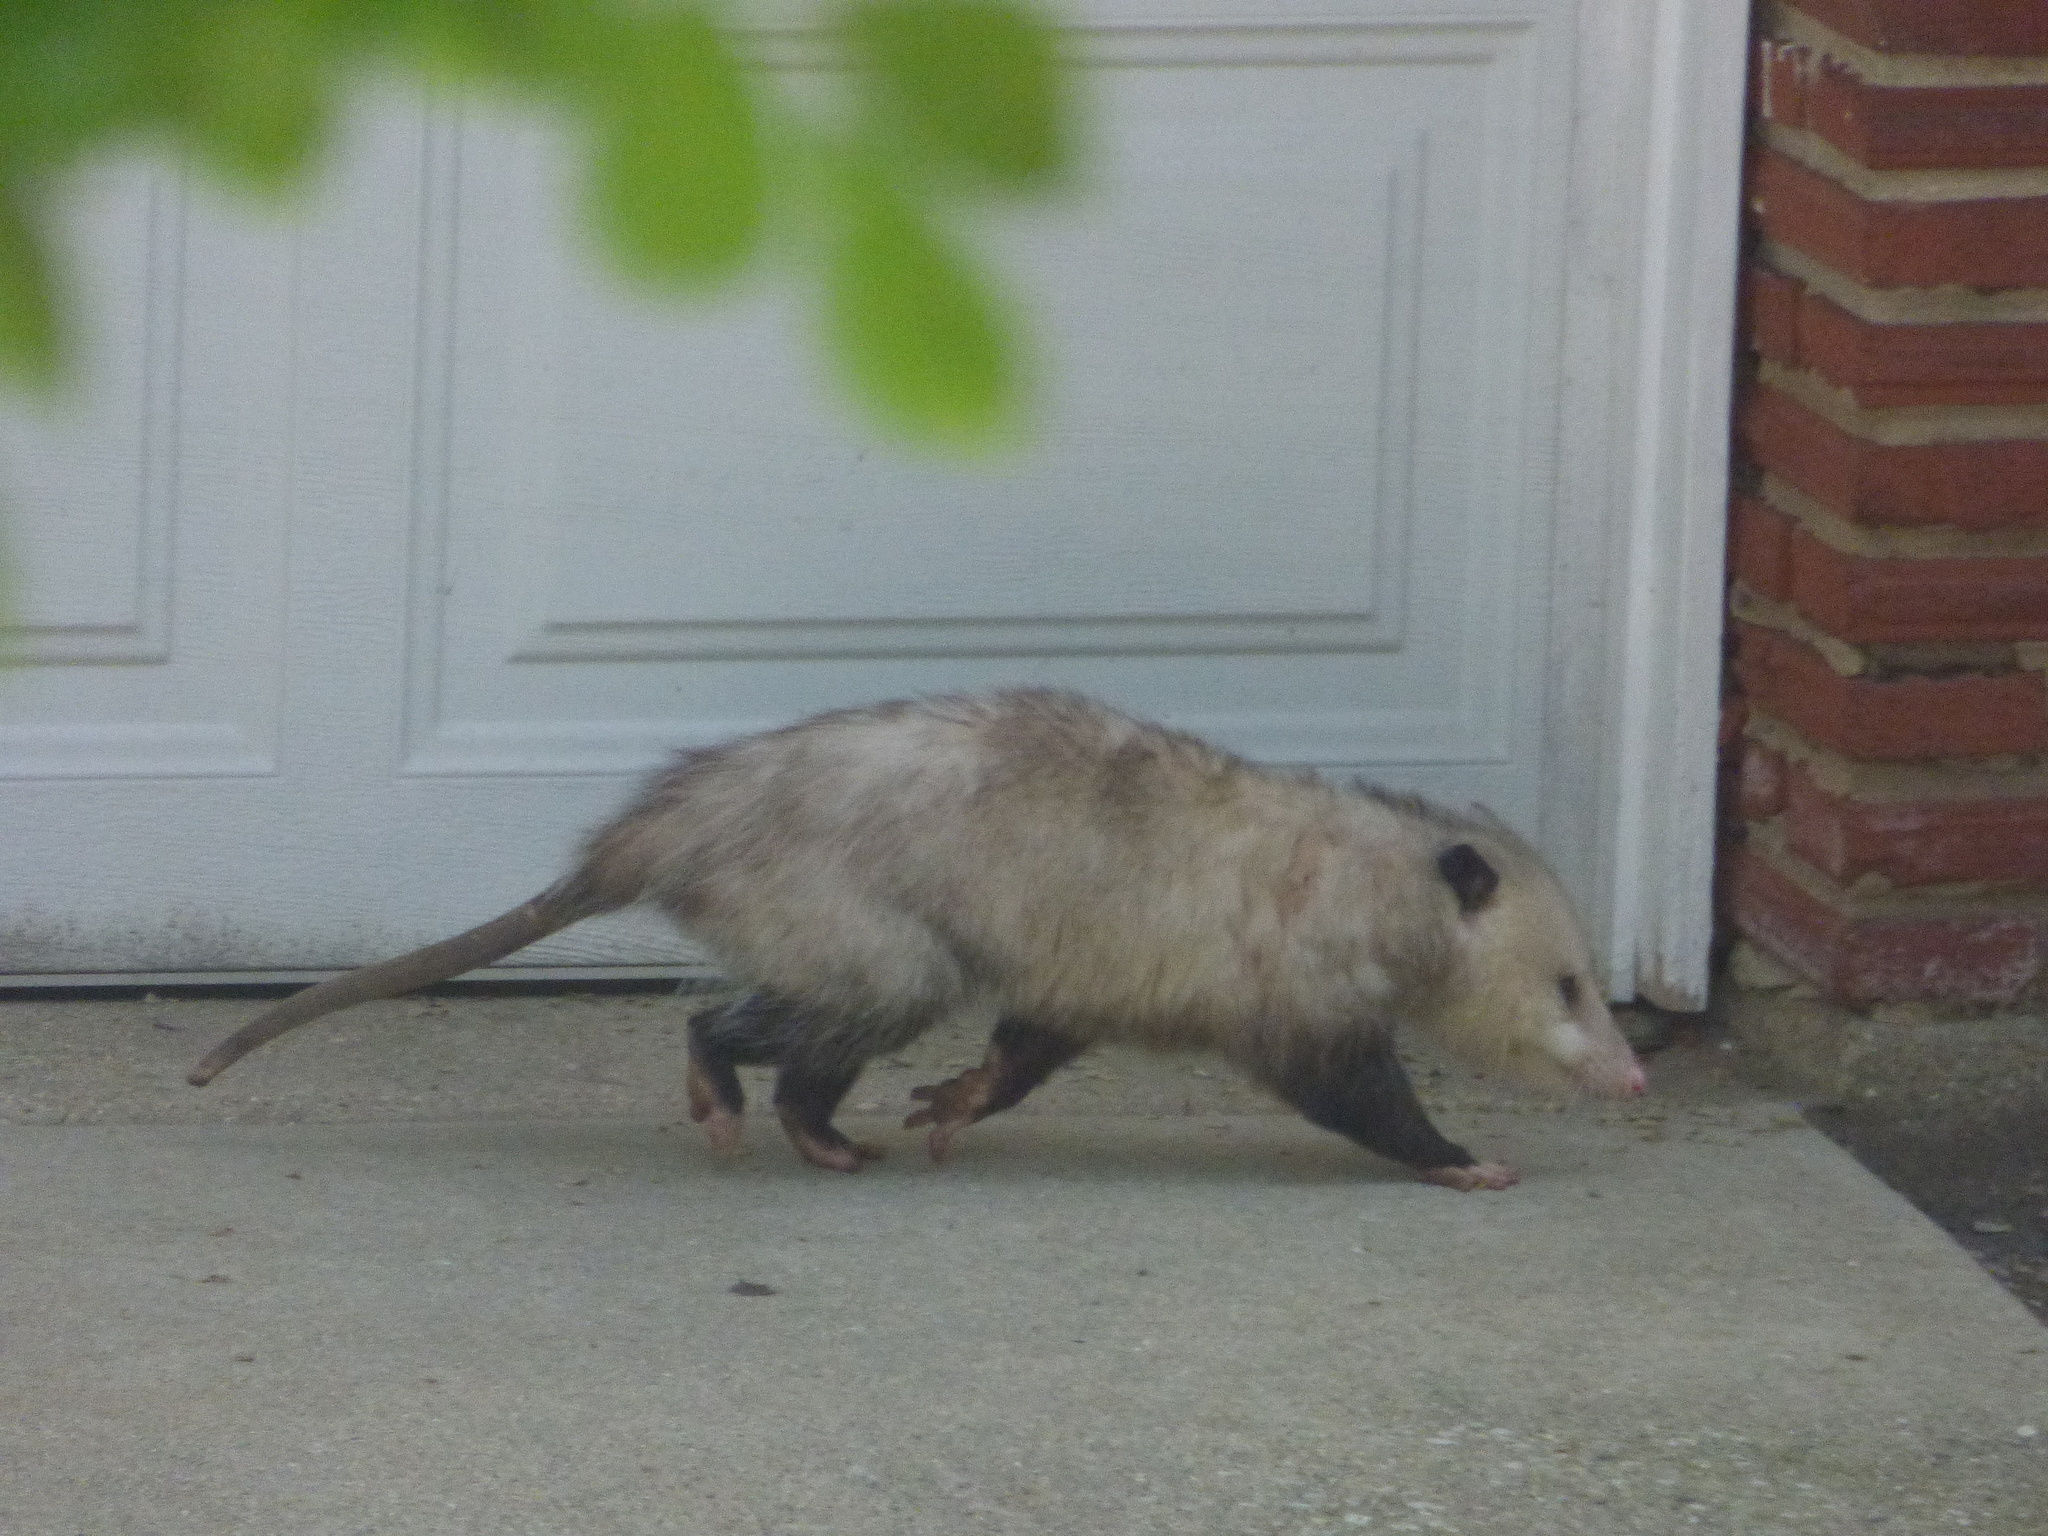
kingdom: Animalia
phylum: Chordata
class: Mammalia
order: Didelphimorphia
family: Didelphidae
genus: Didelphis
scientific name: Didelphis virginiana
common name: Virginia opossum
